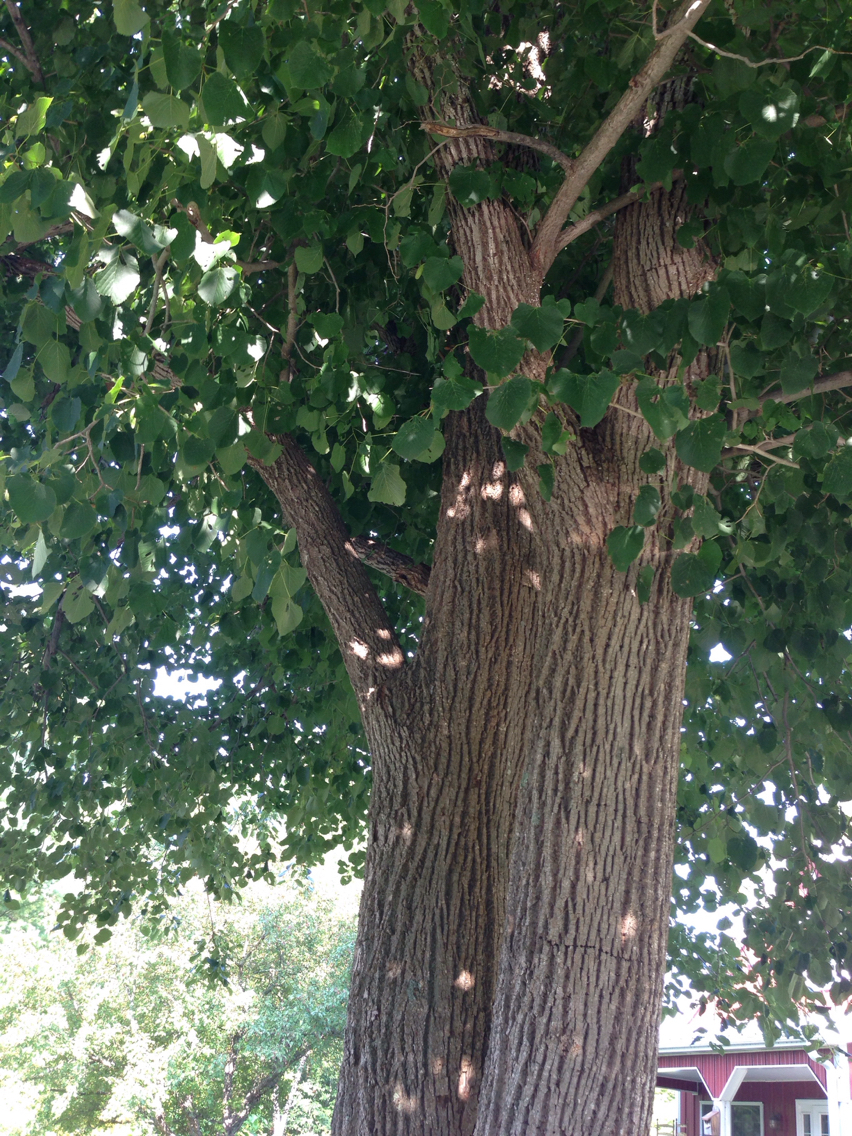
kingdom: Plantae
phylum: Tracheophyta
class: Magnoliopsida
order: Malvales
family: Malvaceae
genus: Tilia
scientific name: Tilia americana
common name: Basswood
